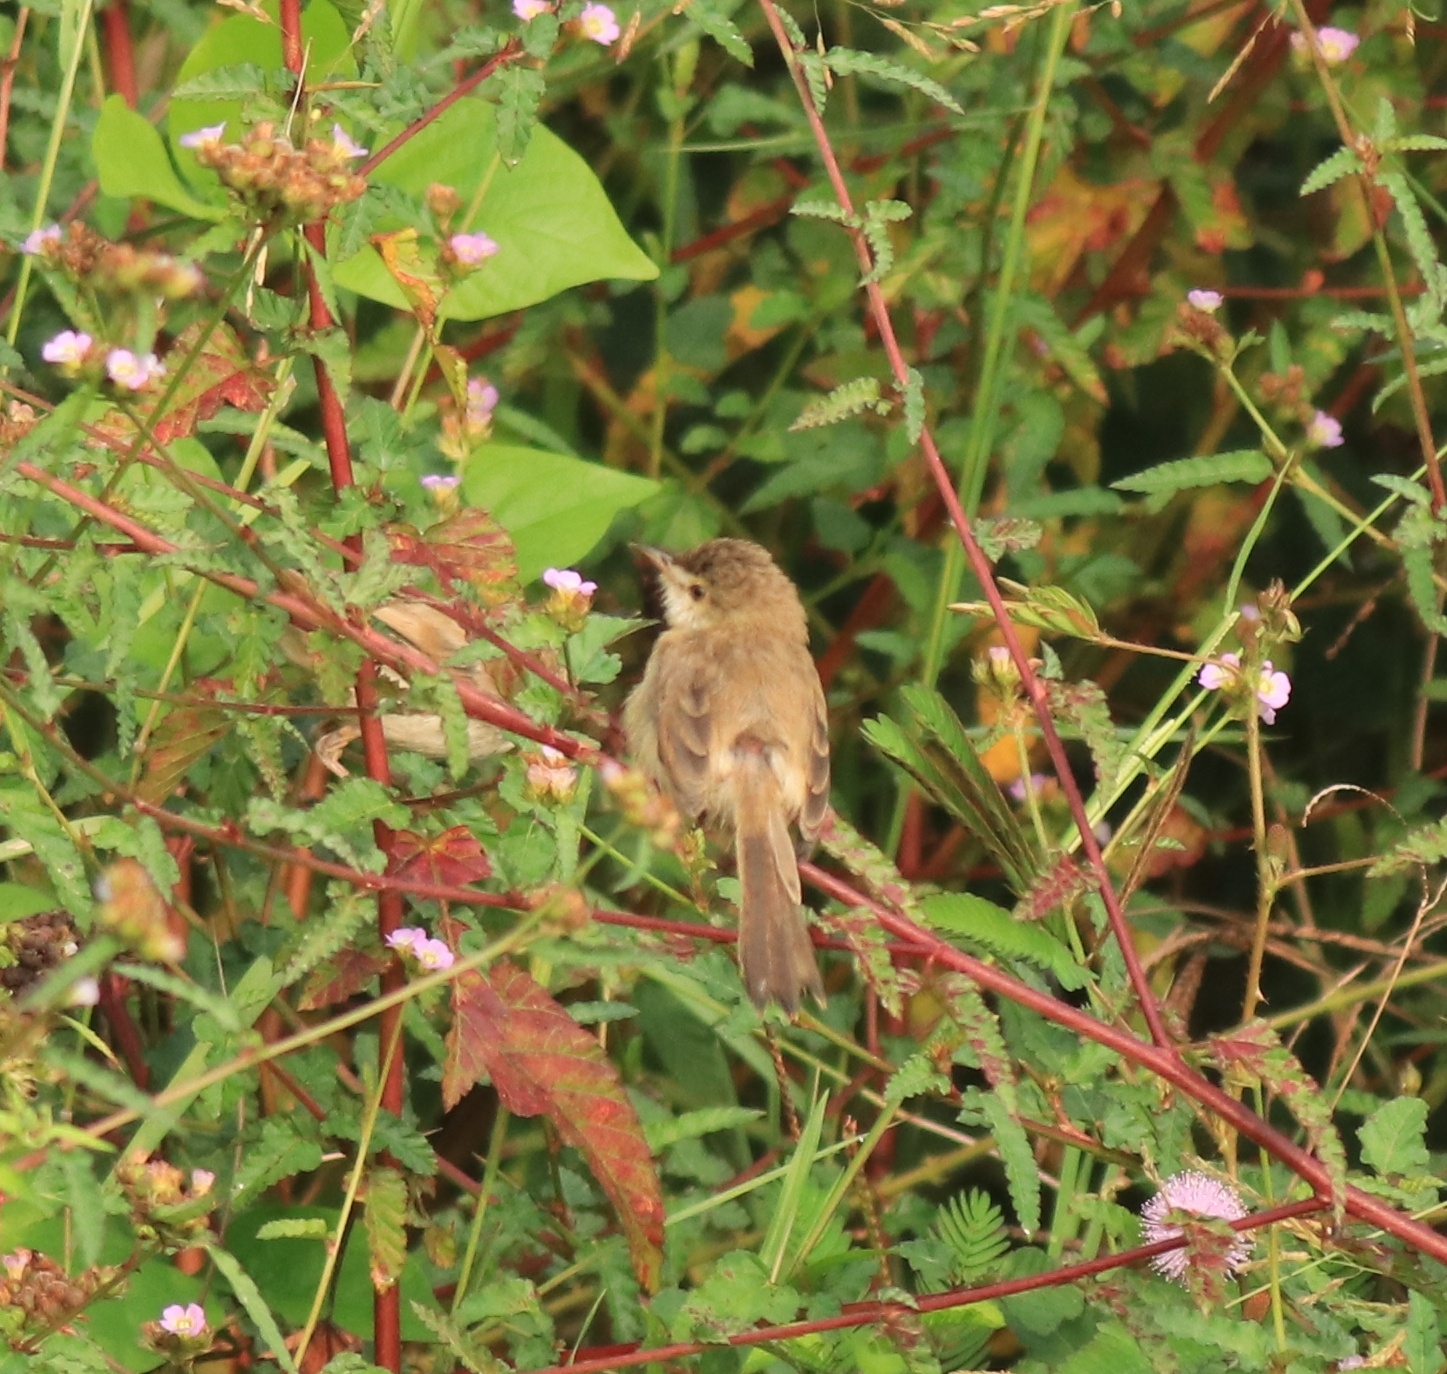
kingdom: Animalia
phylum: Chordata
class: Aves
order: Passeriformes
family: Cisticolidae
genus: Prinia
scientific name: Prinia inornata
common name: Plain prinia
